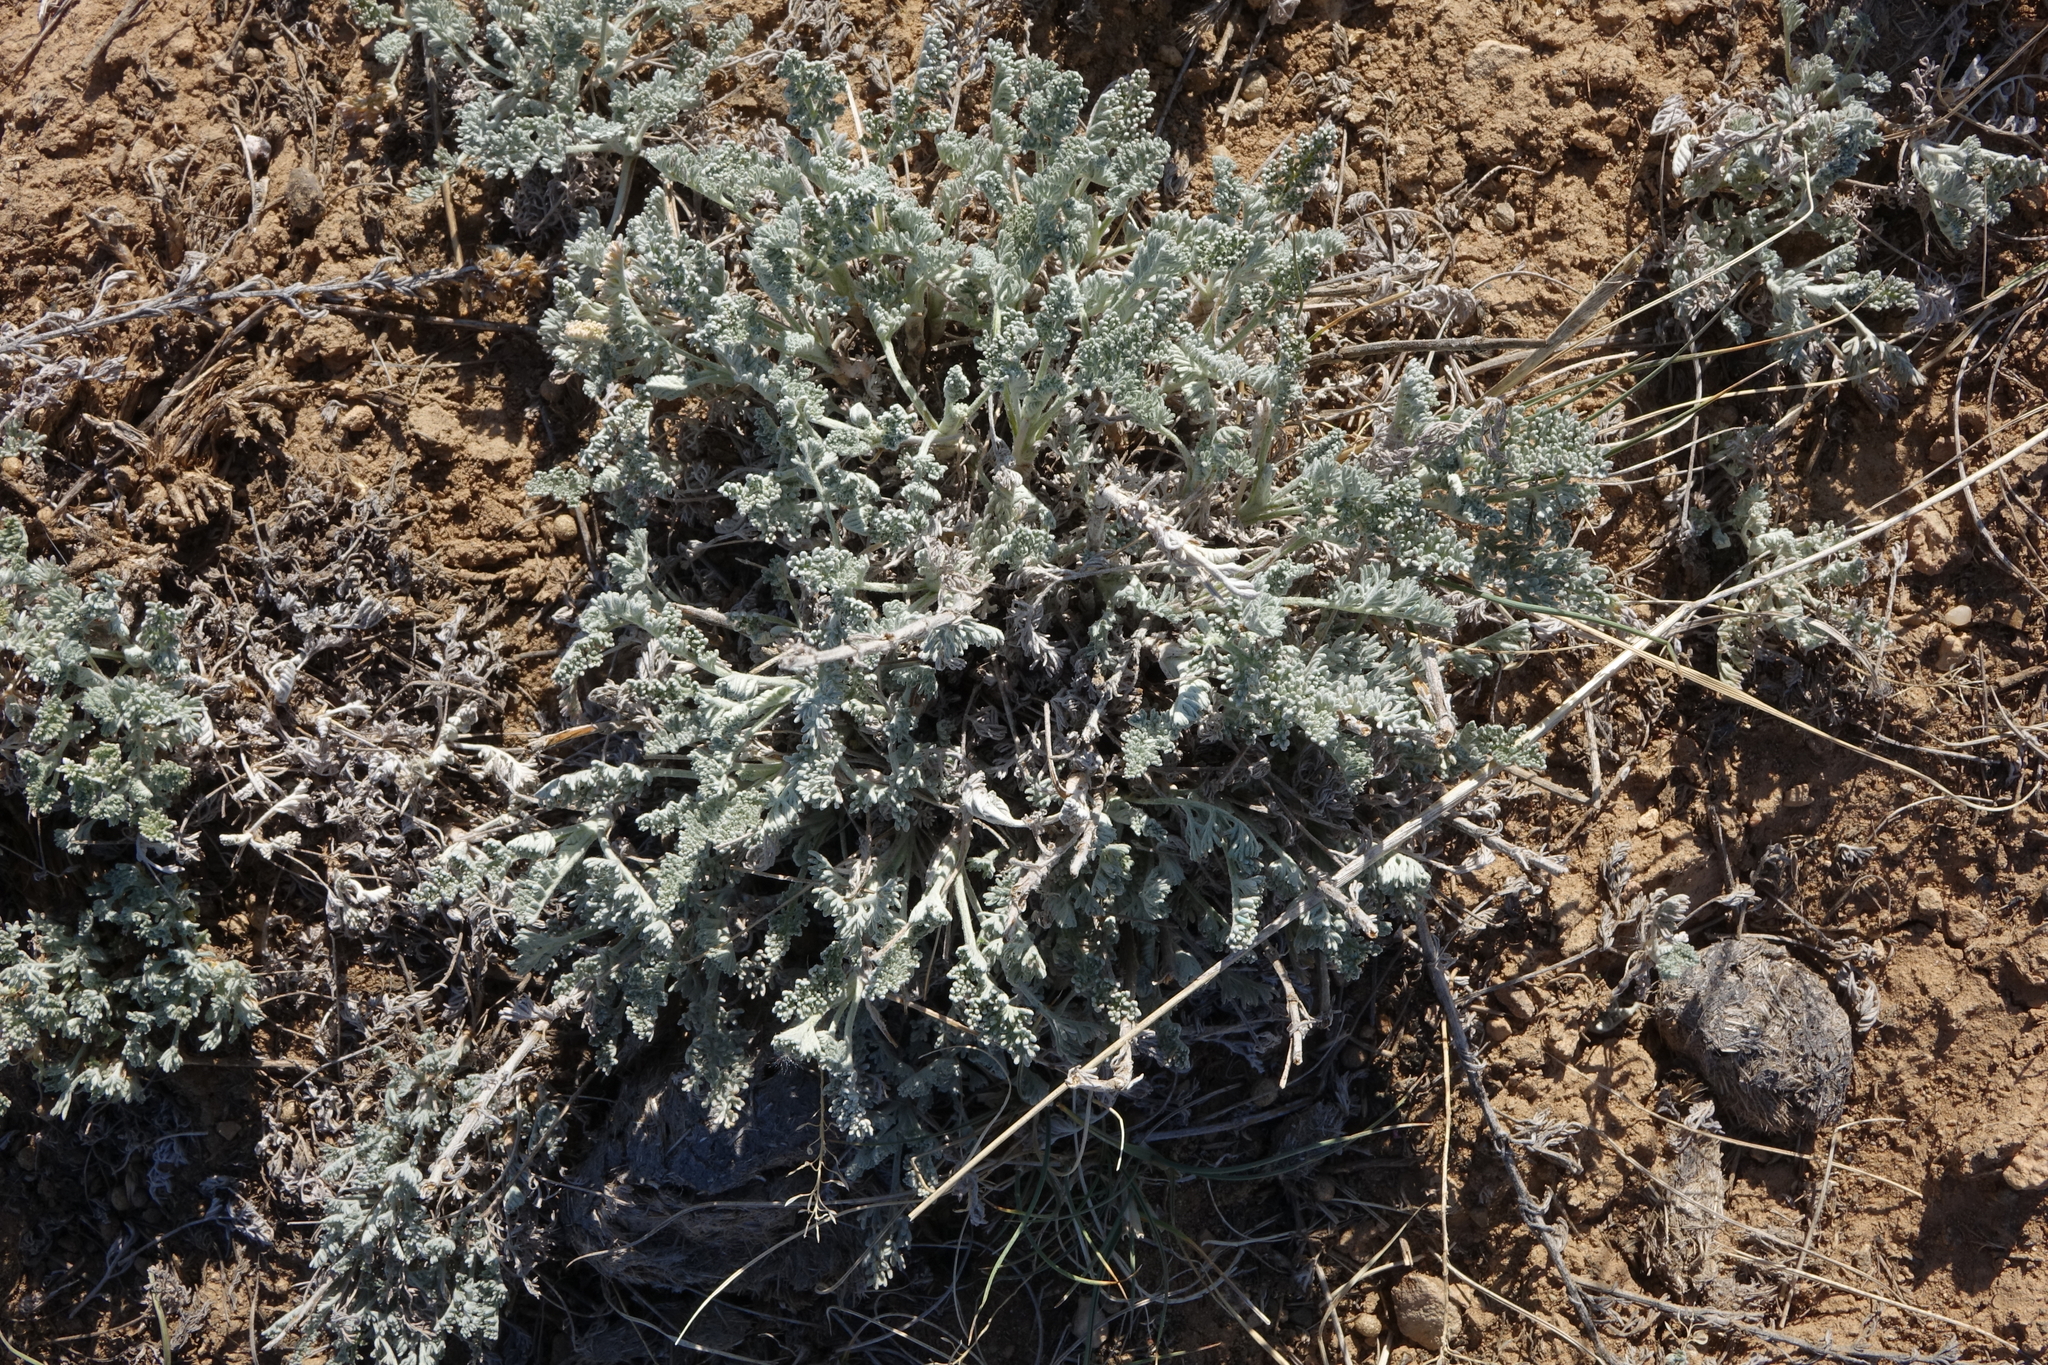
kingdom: Plantae
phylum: Tracheophyta
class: Magnoliopsida
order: Asterales
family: Asteraceae
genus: Artemisia
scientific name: Artemisia nitrosa
